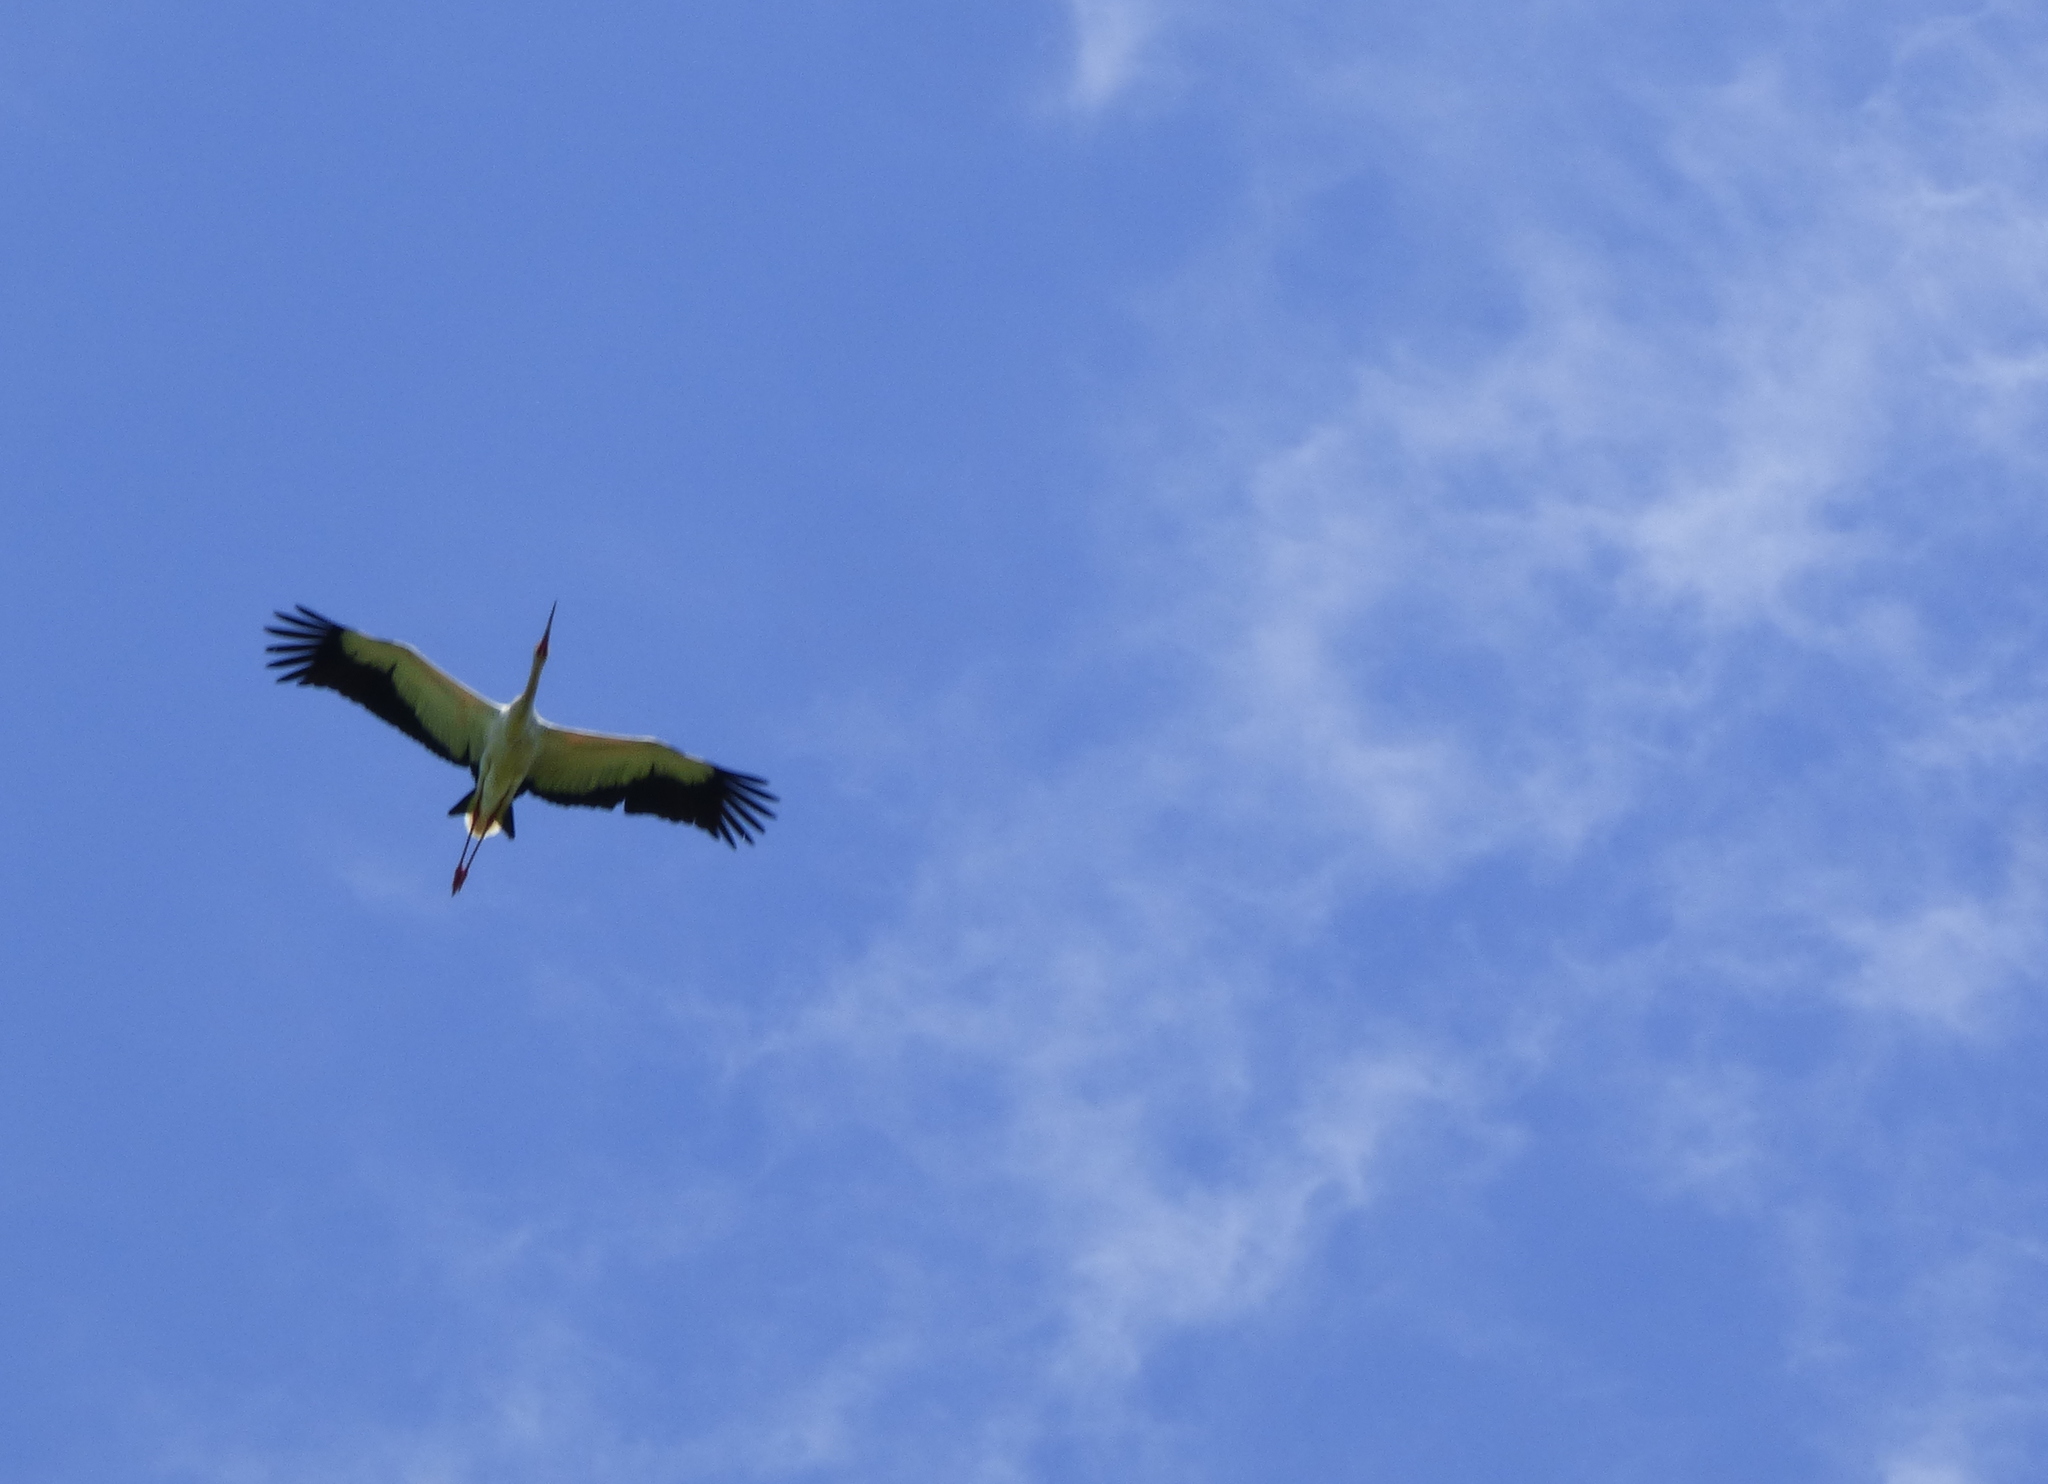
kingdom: Animalia
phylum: Chordata
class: Aves
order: Ciconiiformes
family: Ciconiidae
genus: Ciconia
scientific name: Ciconia maguari
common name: Maguari stork
